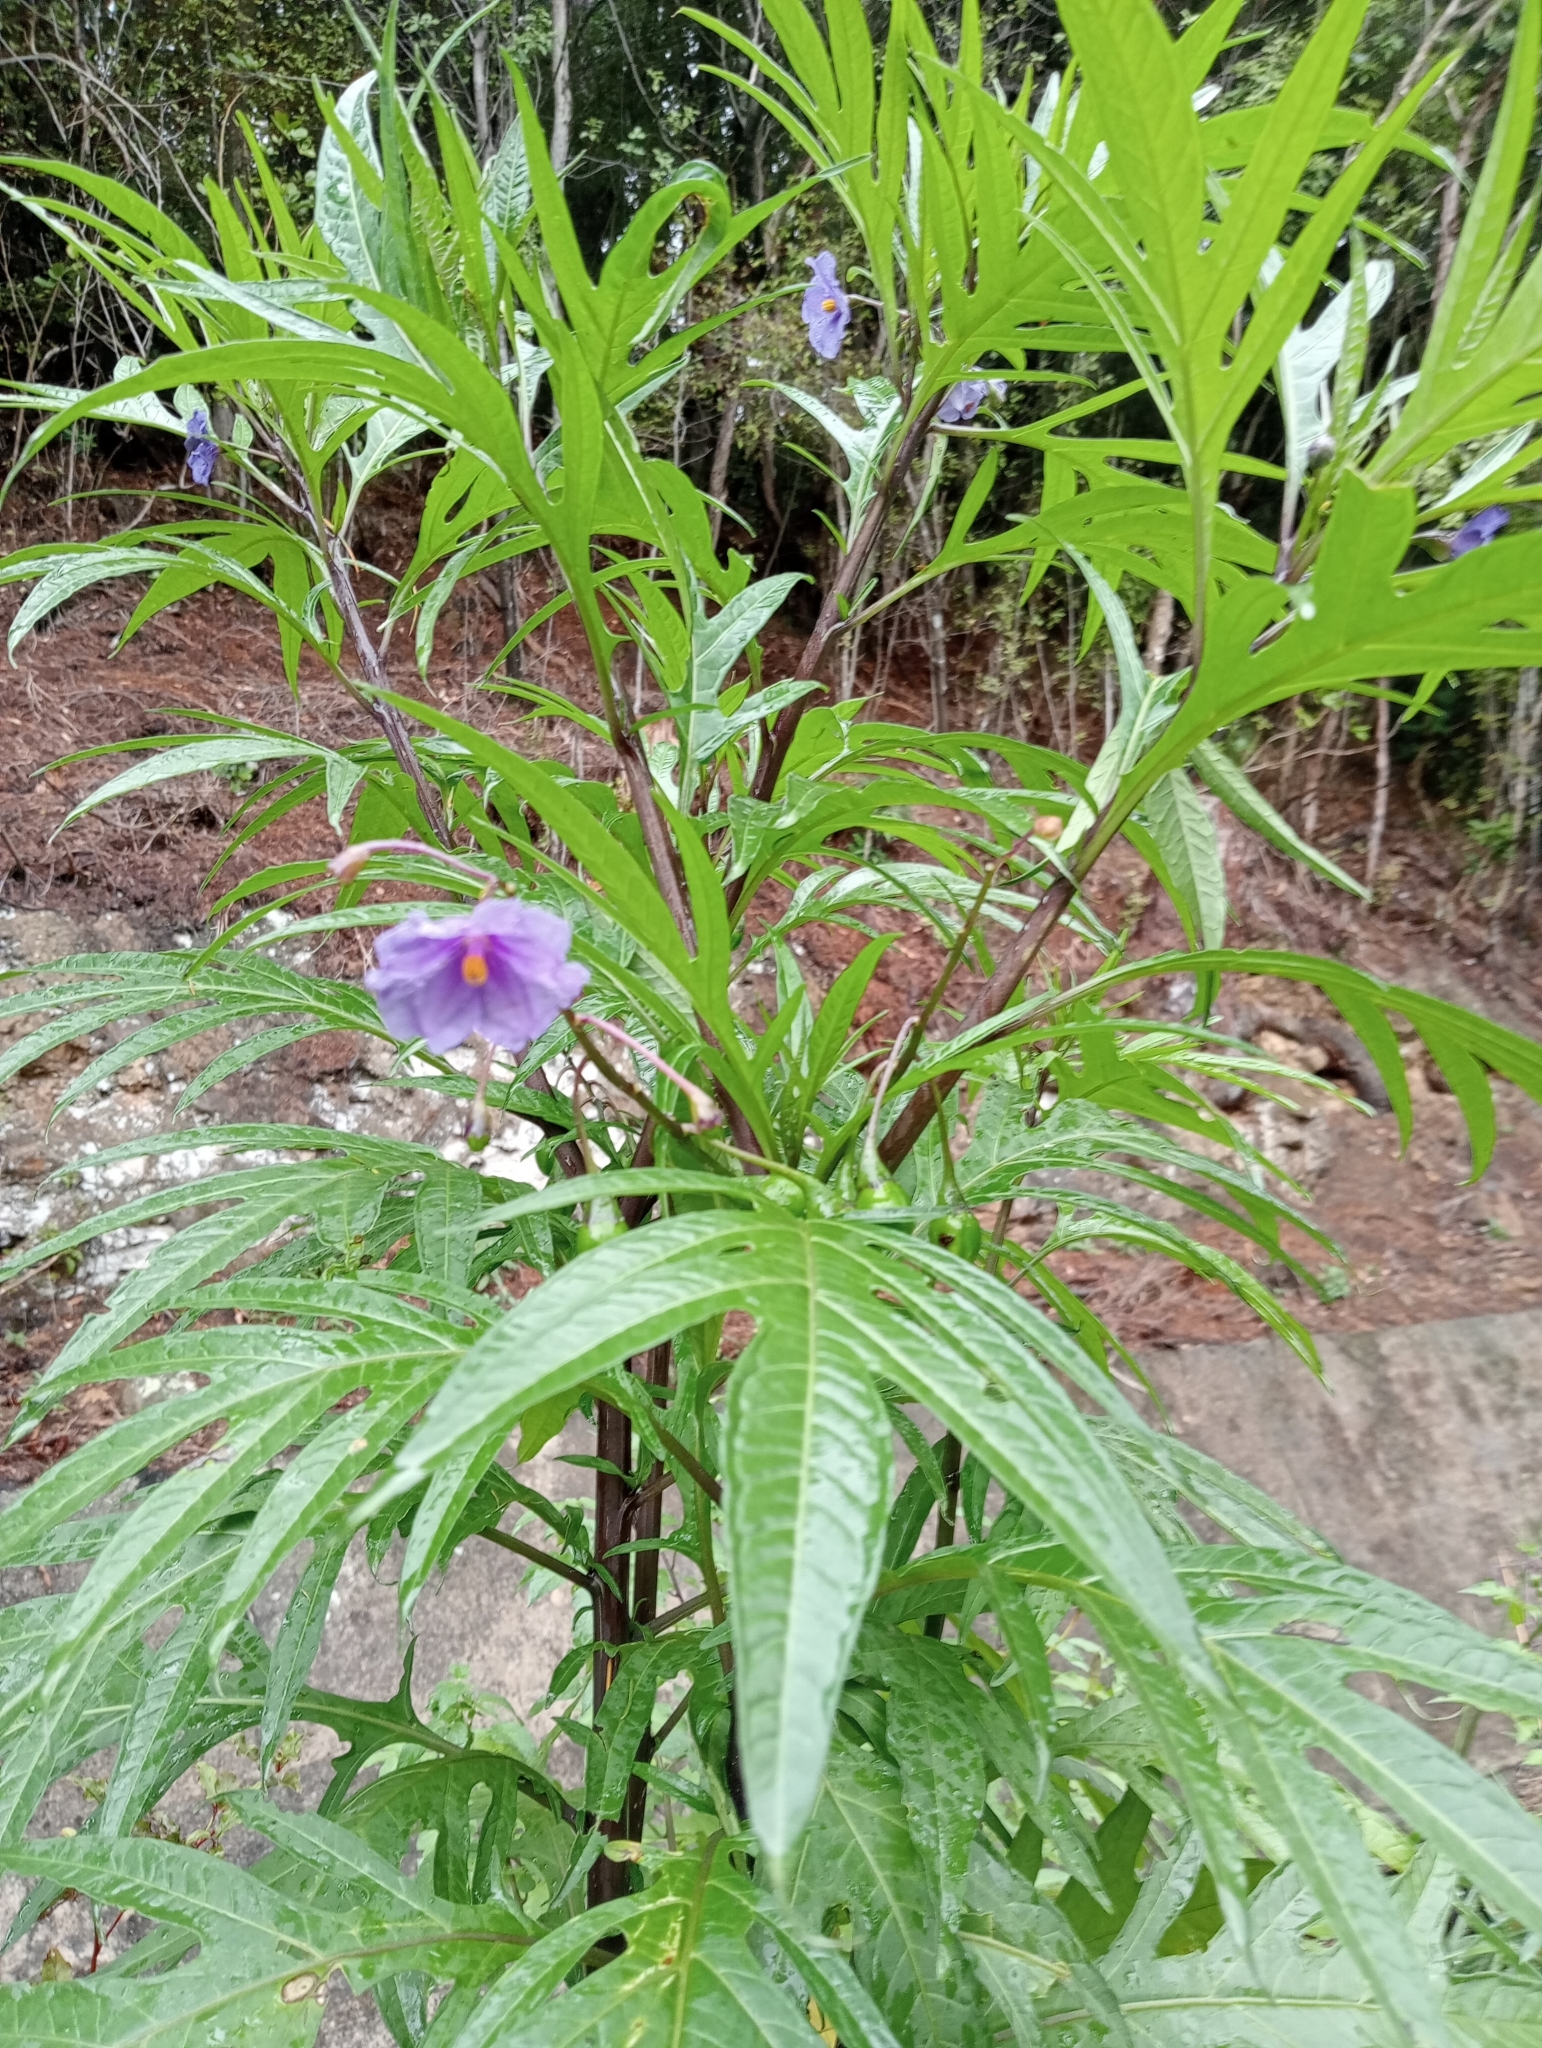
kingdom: Plantae
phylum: Tracheophyta
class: Magnoliopsida
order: Solanales
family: Solanaceae
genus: Solanum
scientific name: Solanum laciniatum
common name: Kangaroo-apple
